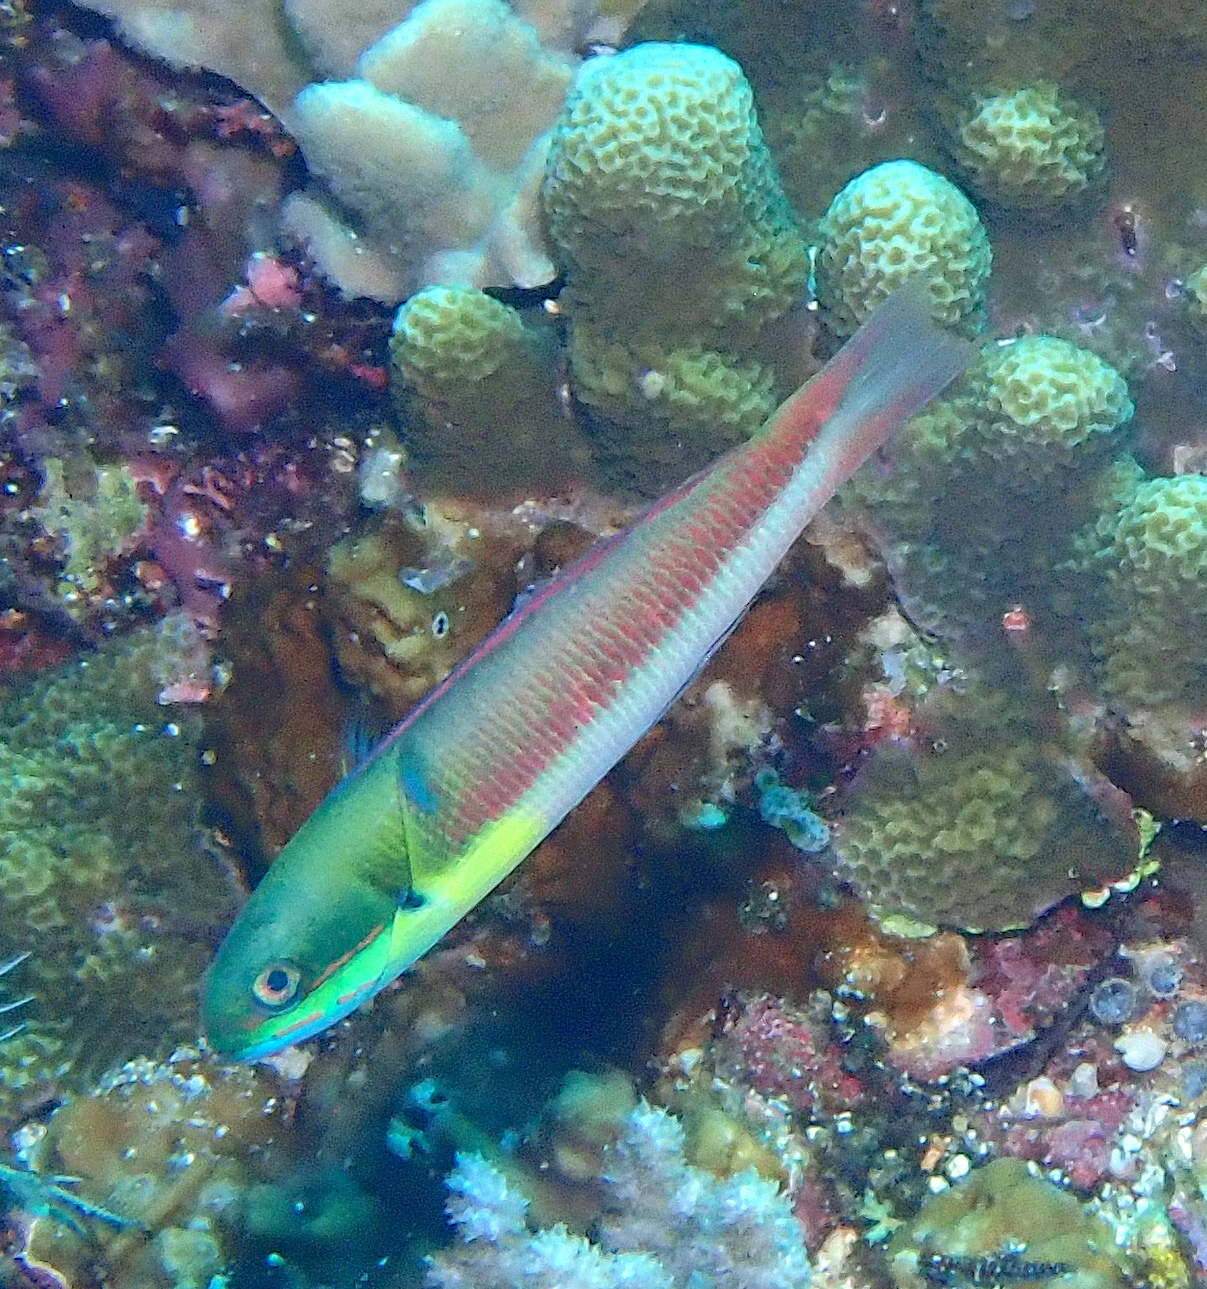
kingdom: Animalia
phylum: Chordata
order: Perciformes
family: Labridae
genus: Thalassoma
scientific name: Thalassoma amblycephalum
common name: Bluehead wrasse
